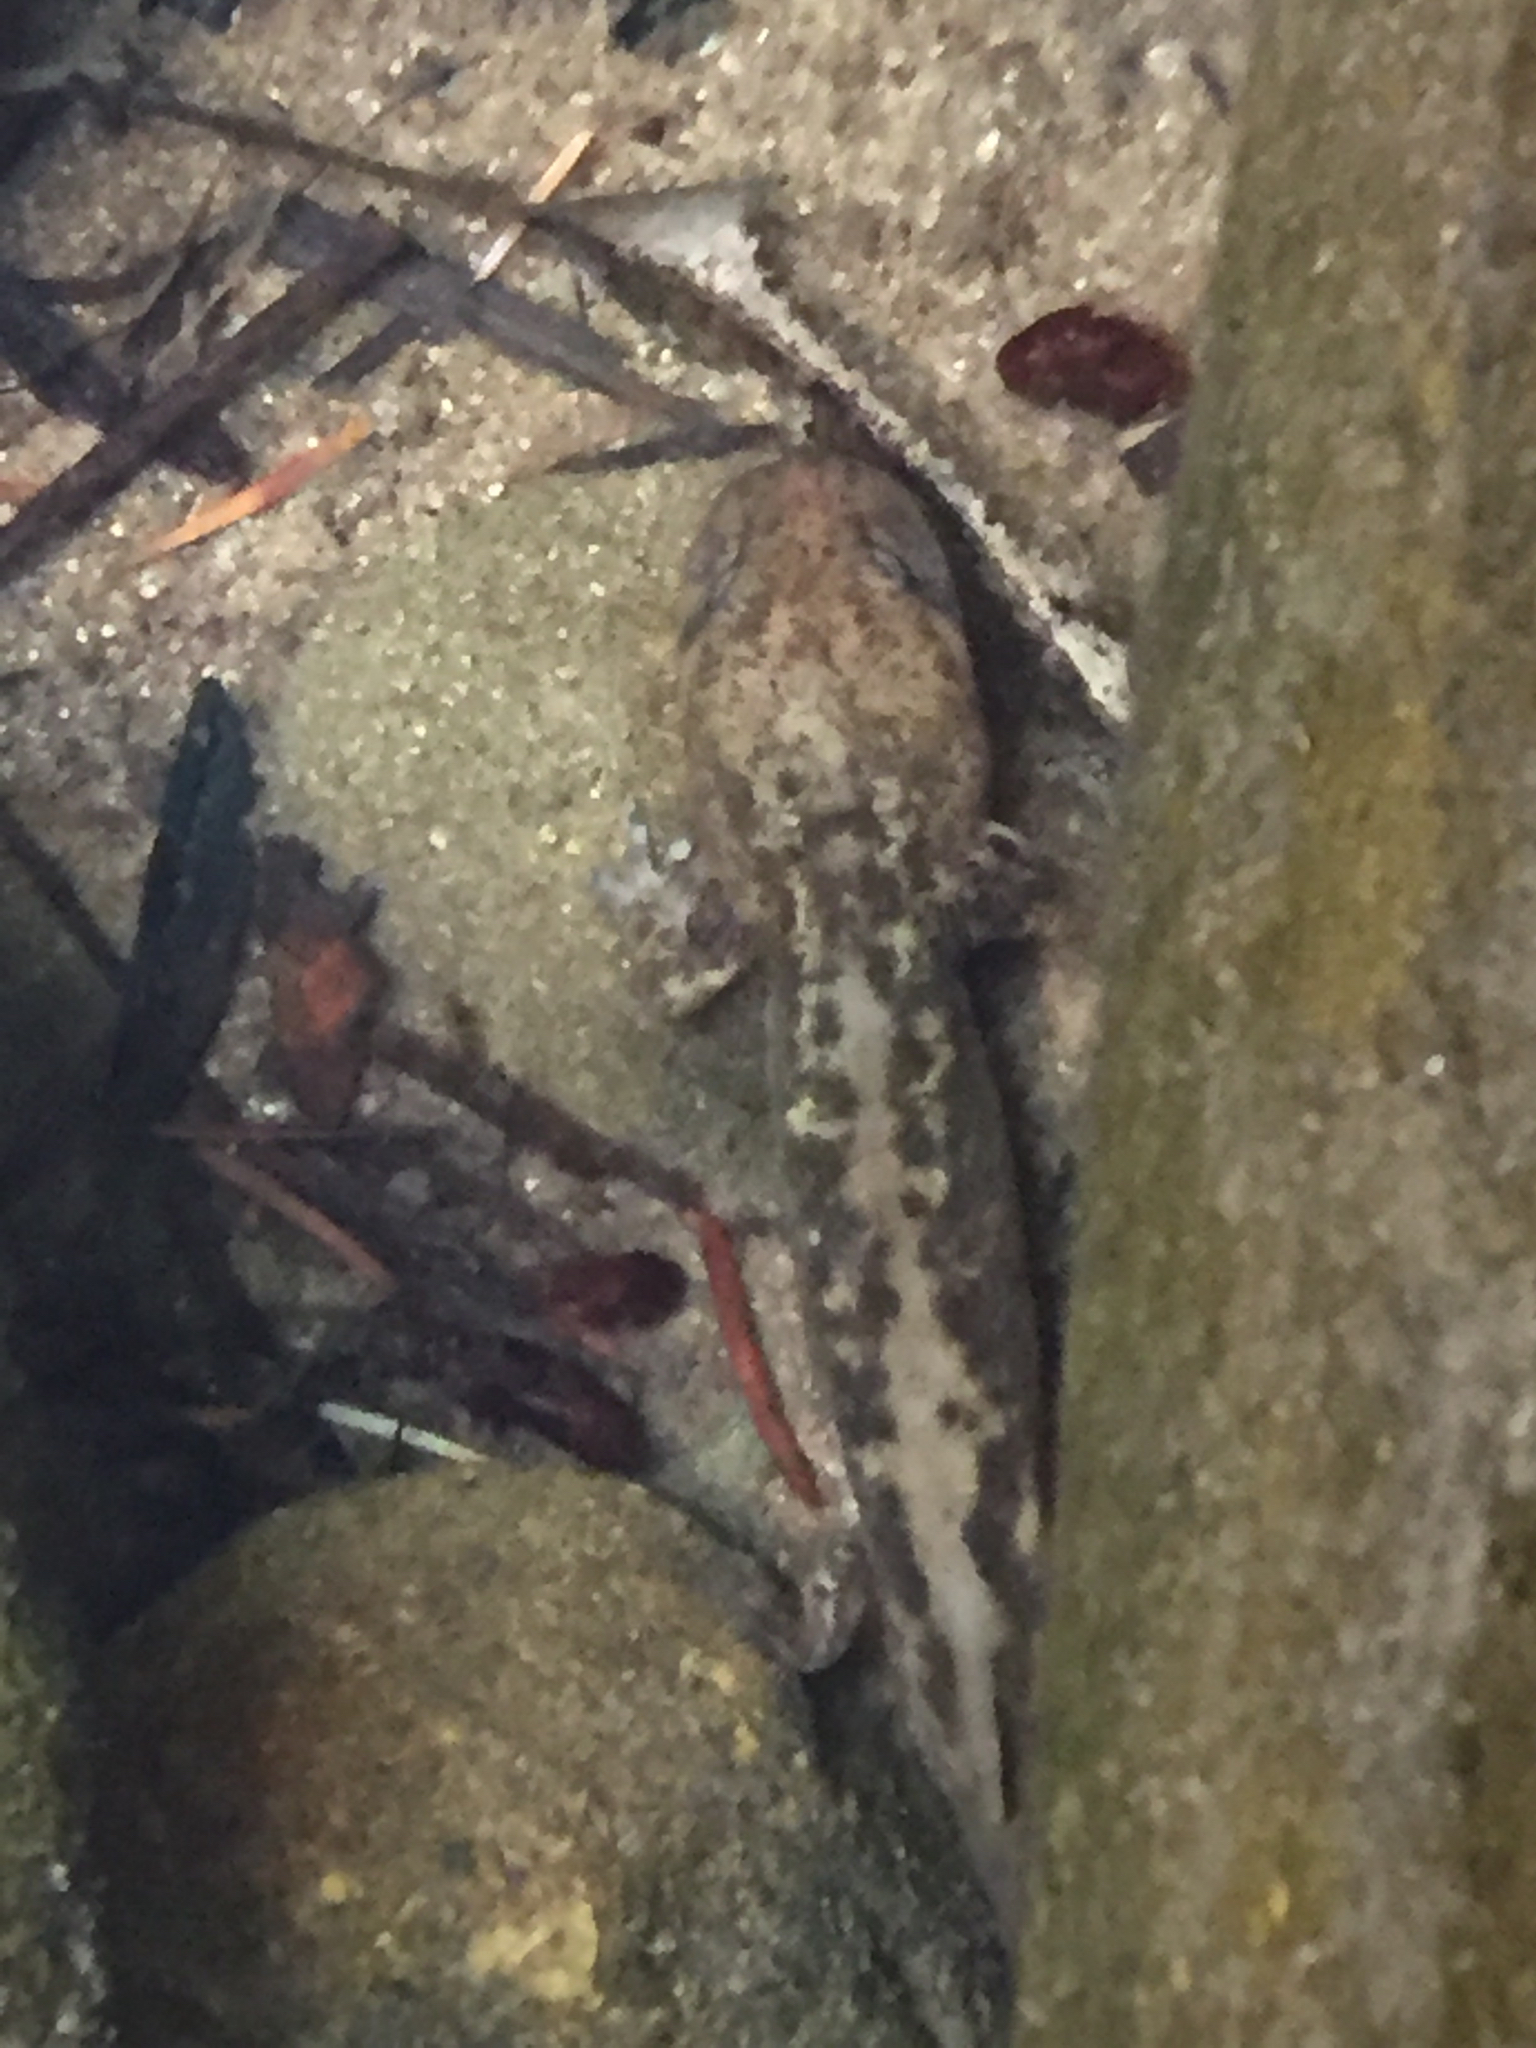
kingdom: Animalia
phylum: Chordata
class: Amphibia
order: Caudata
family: Ambystomatidae
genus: Dicamptodon
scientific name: Dicamptodon ensatus
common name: California giant salamander
